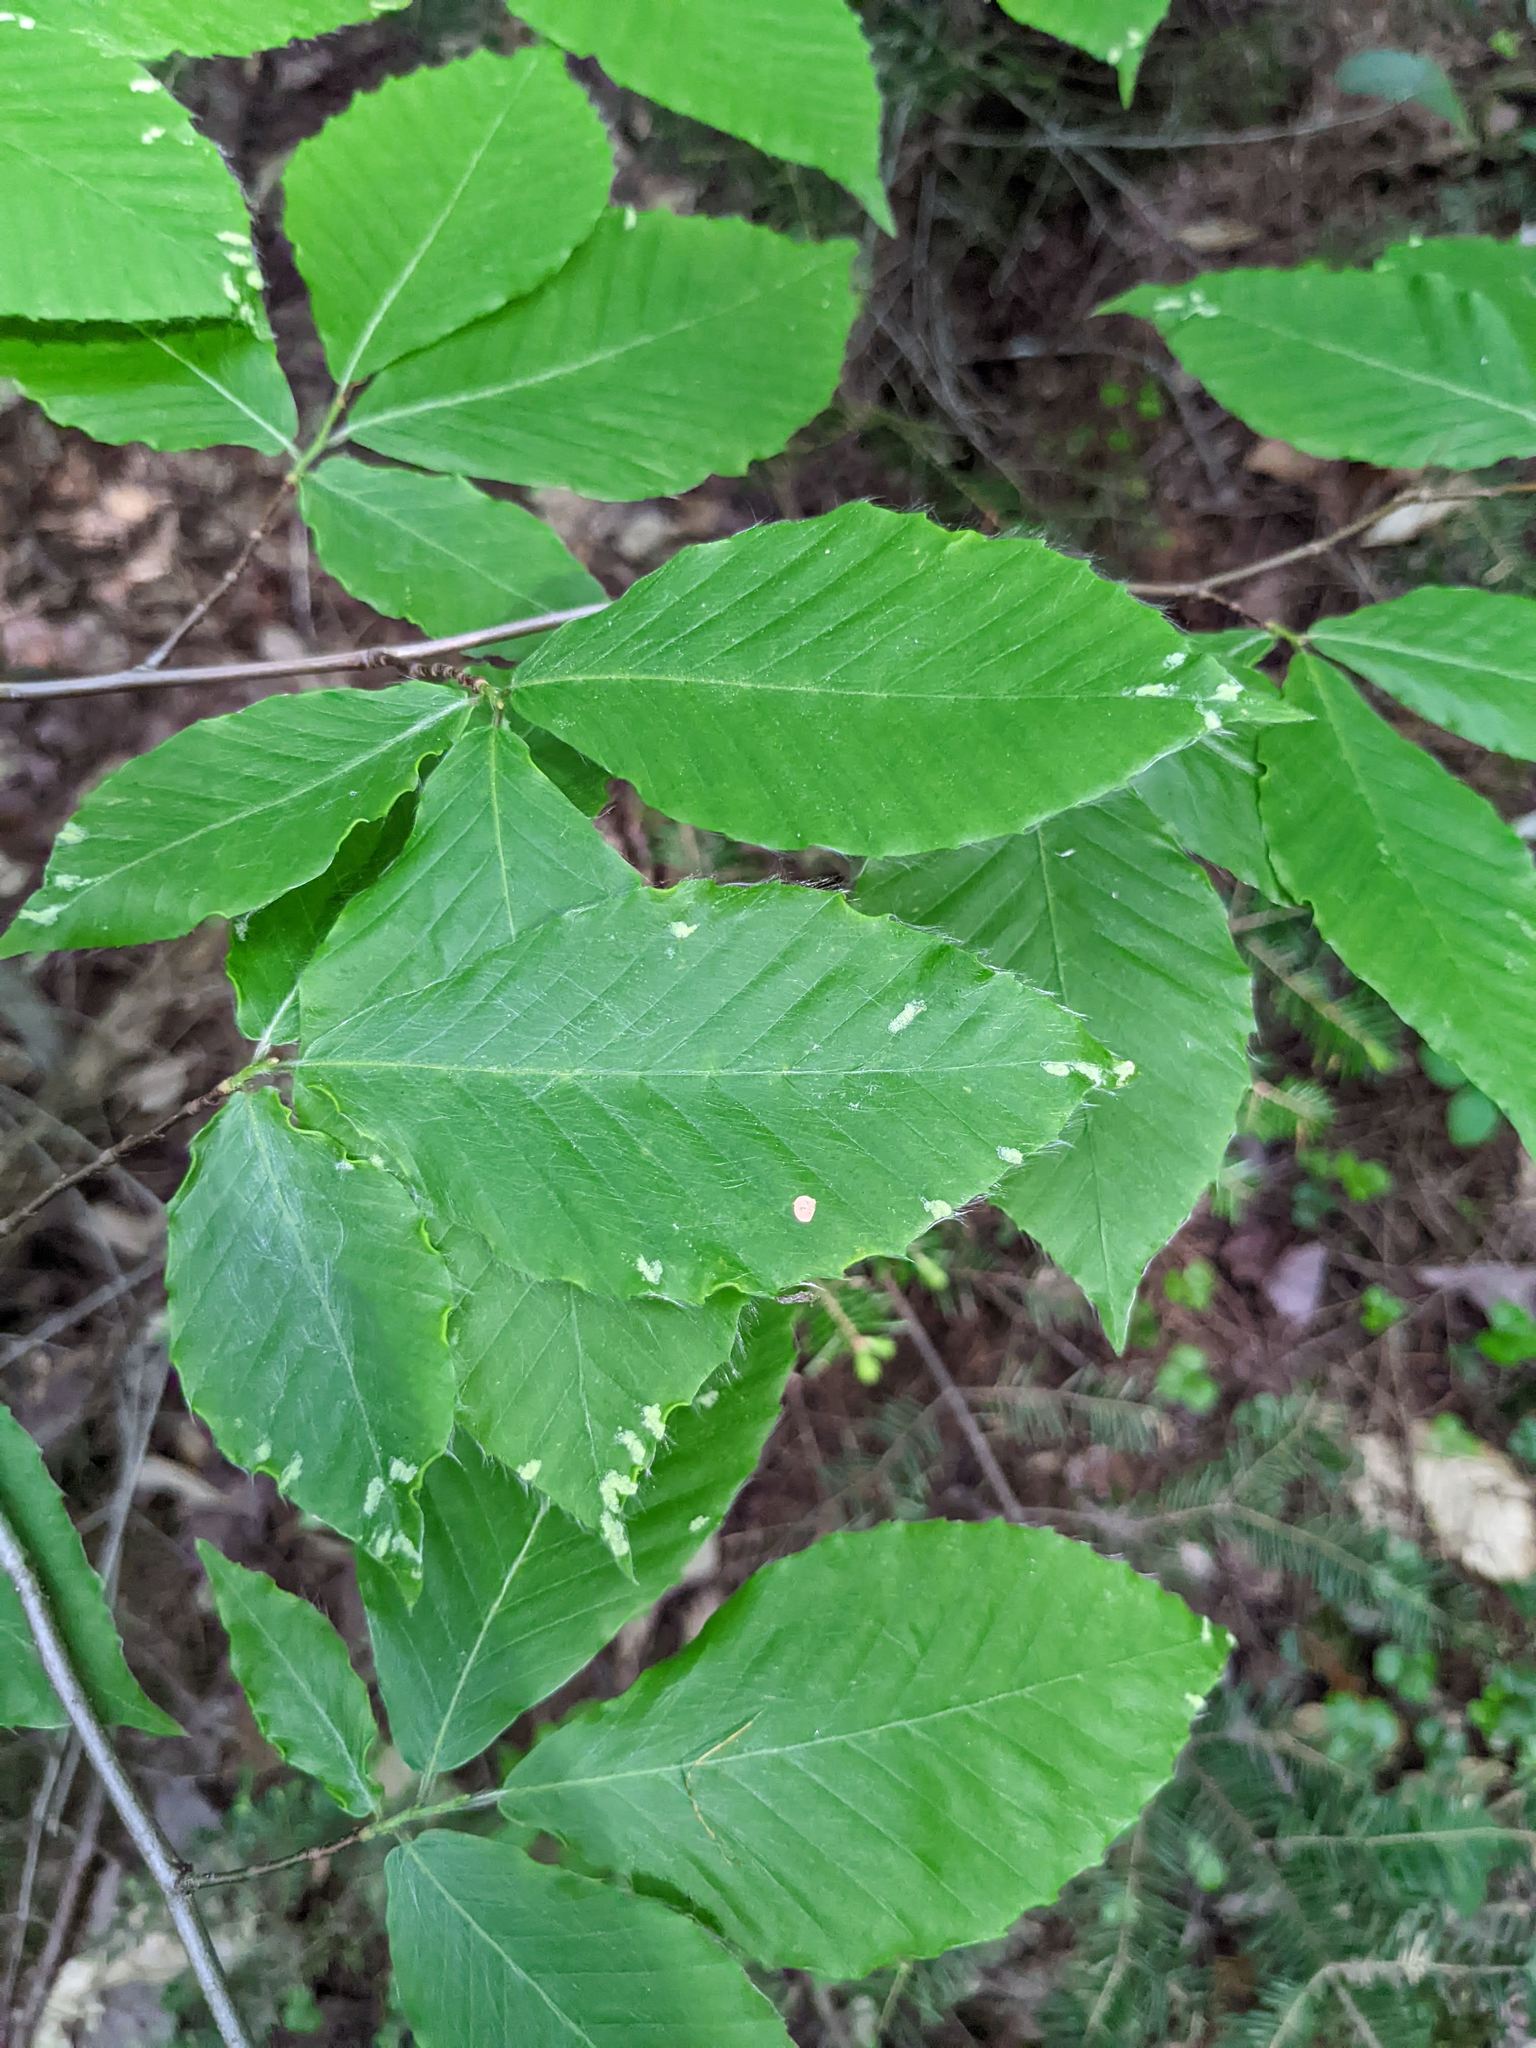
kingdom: Animalia
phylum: Arthropoda
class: Arachnida
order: Trombidiformes
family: Eriophyidae
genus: Acalitus
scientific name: Acalitus
